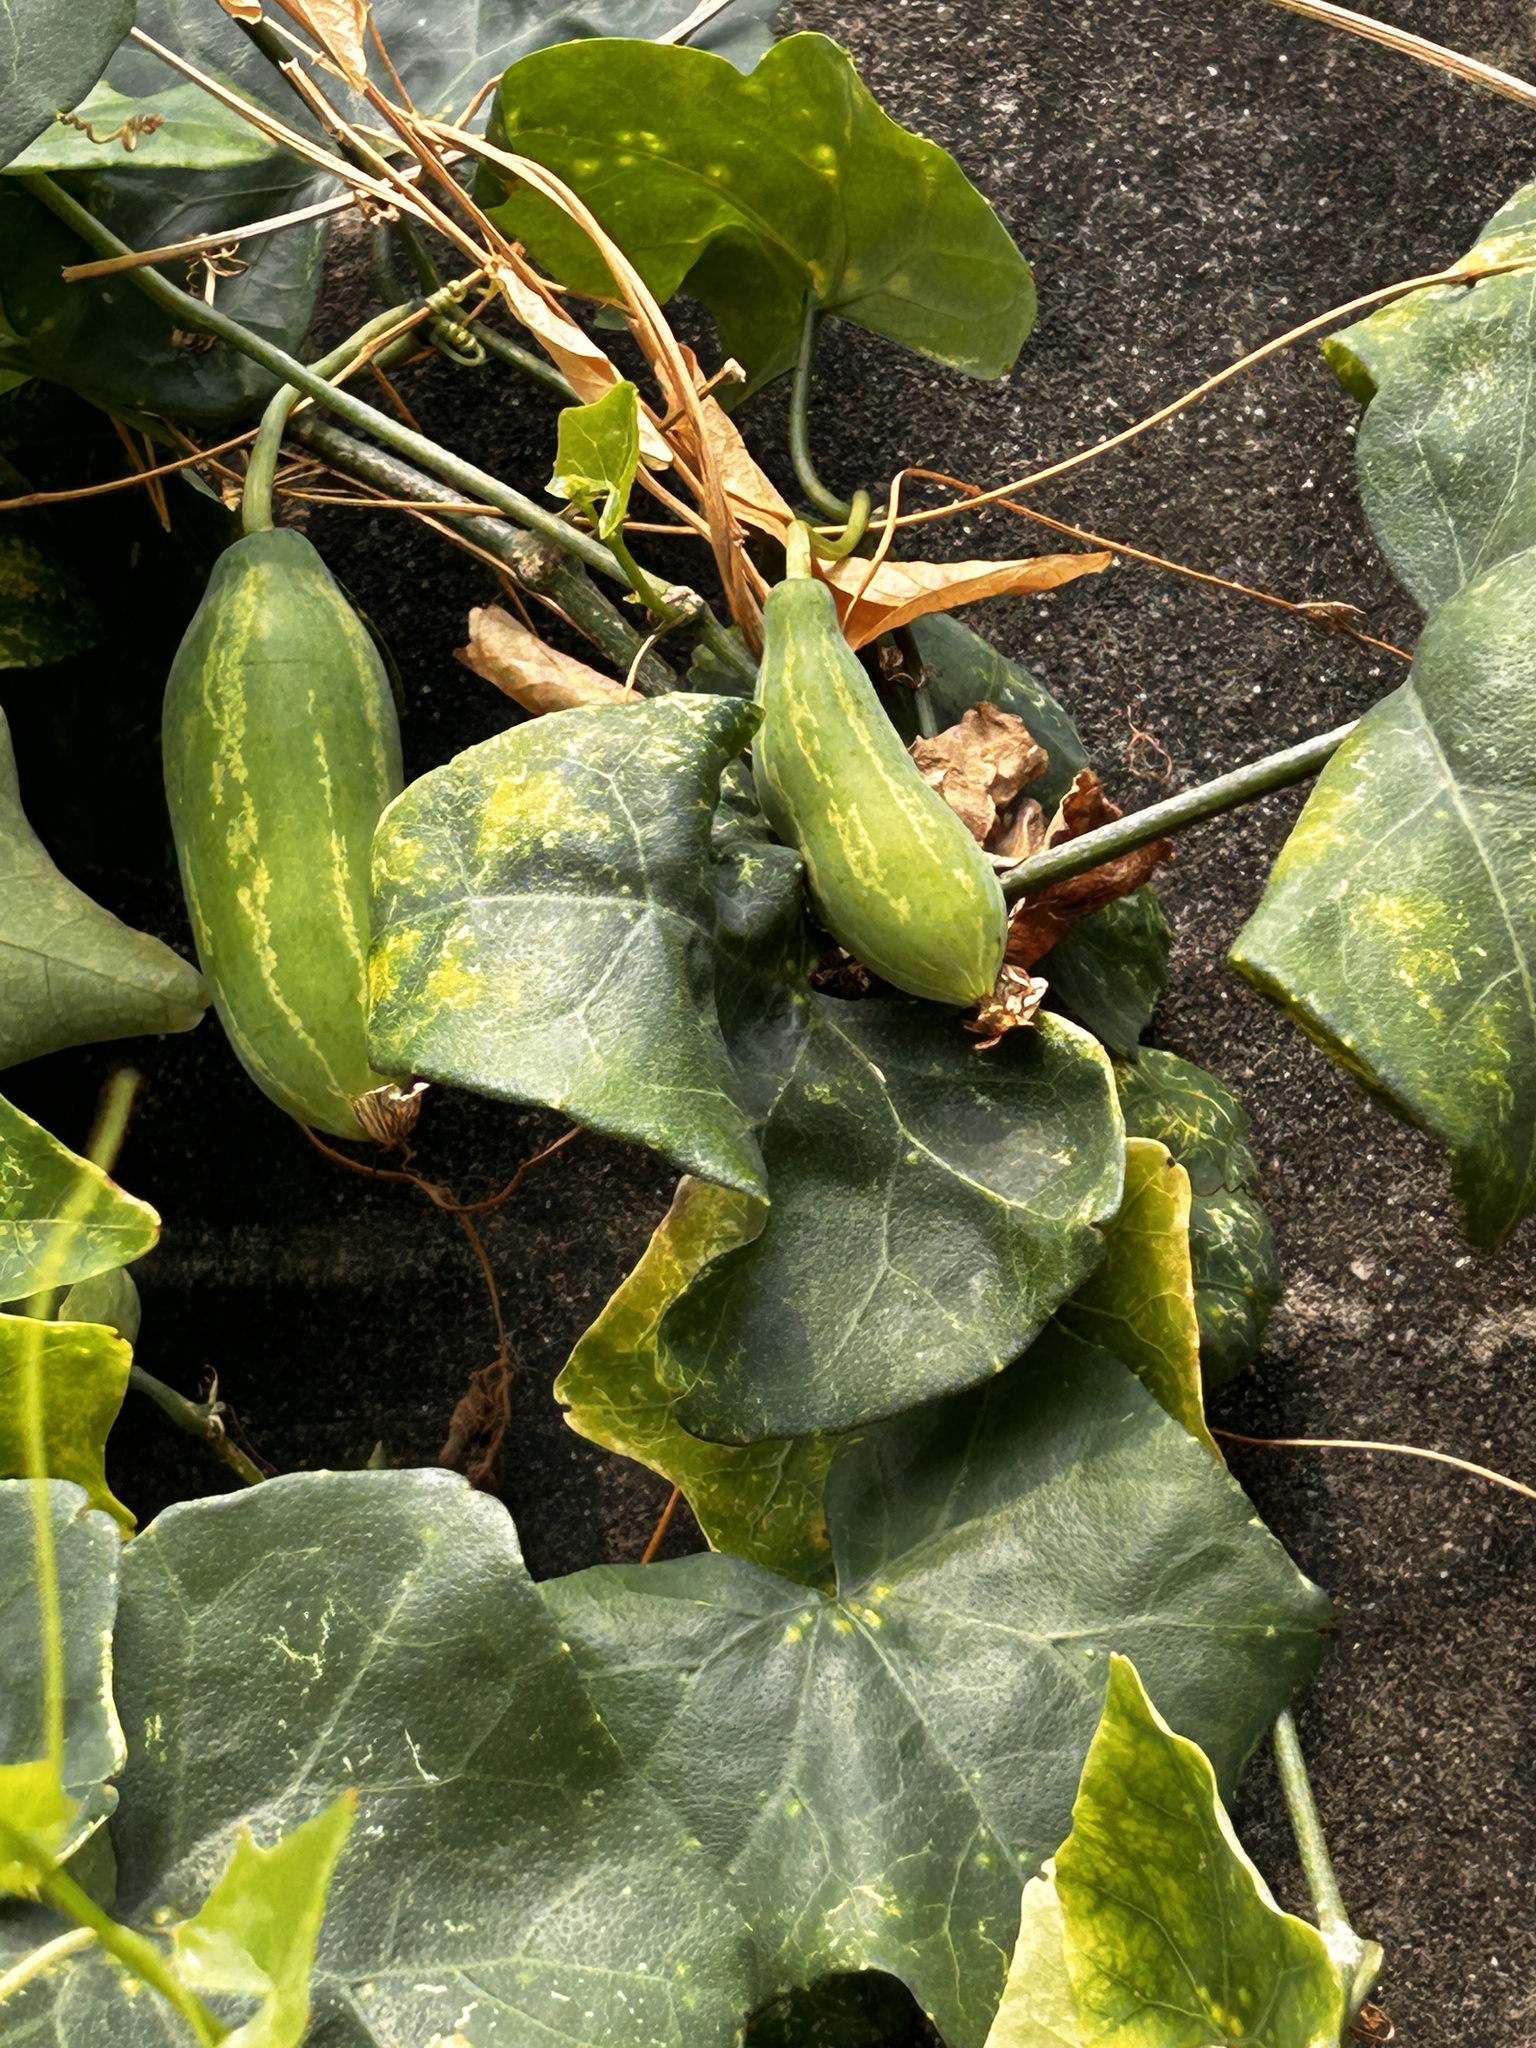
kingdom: Plantae
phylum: Tracheophyta
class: Magnoliopsida
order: Cucurbitales
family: Cucurbitaceae
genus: Coccinia
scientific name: Coccinia grandis
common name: Ivy gourd
